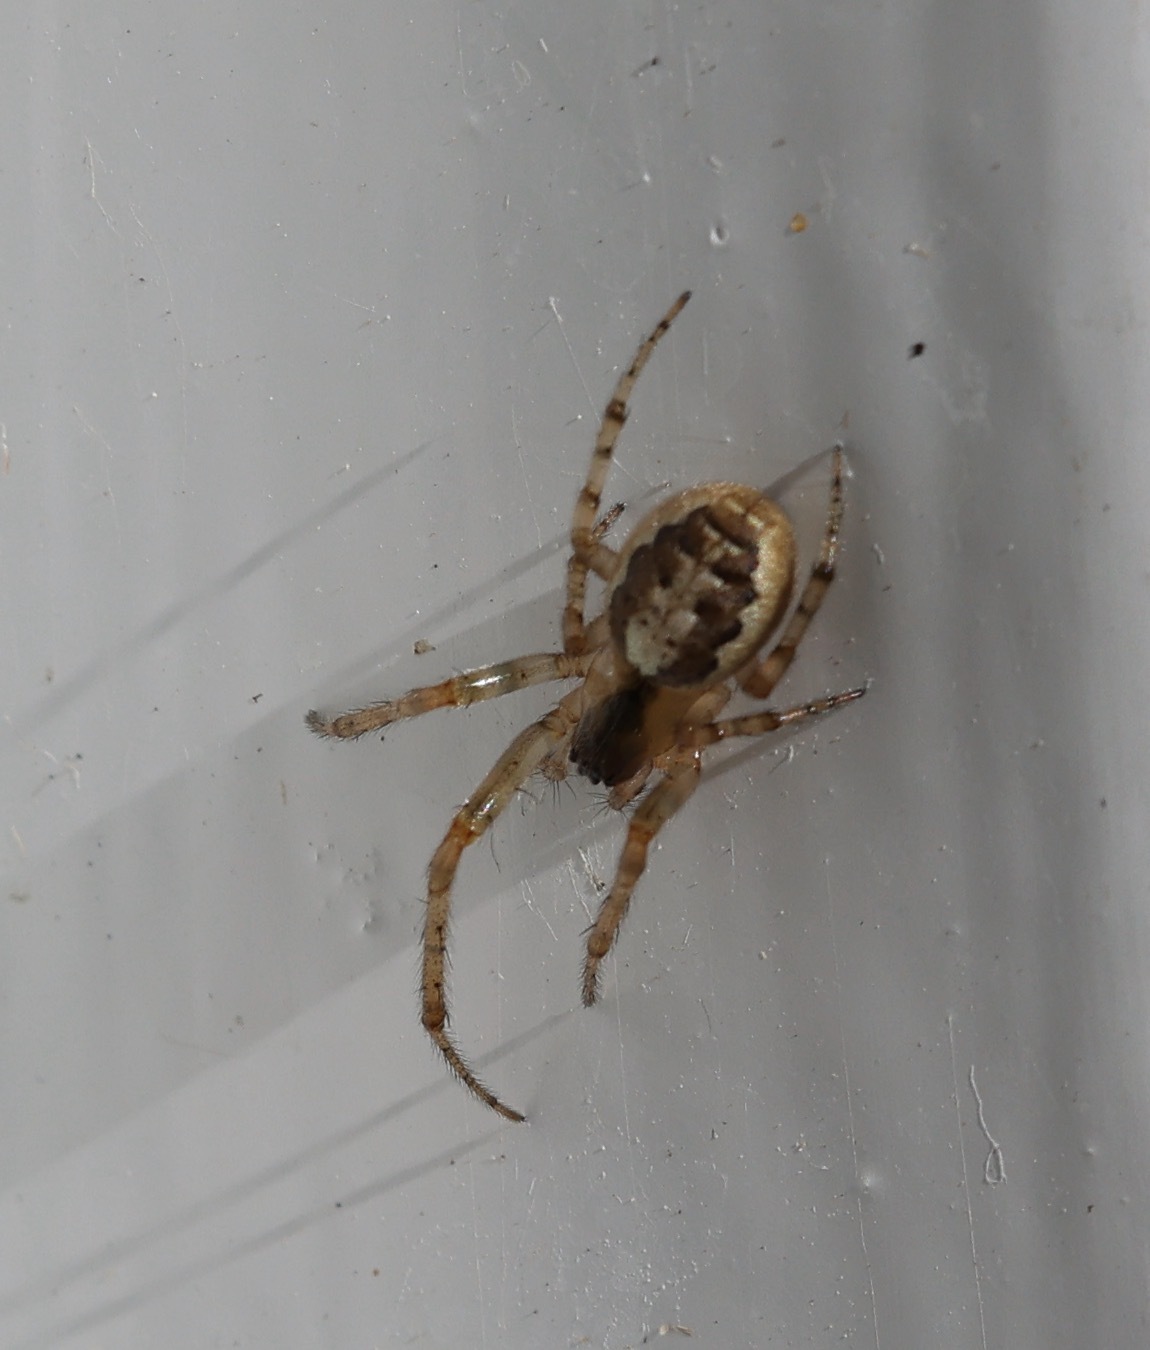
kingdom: Animalia
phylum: Arthropoda
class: Arachnida
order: Araneae
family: Araneidae
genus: Zygiella
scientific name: Zygiella x-notata
